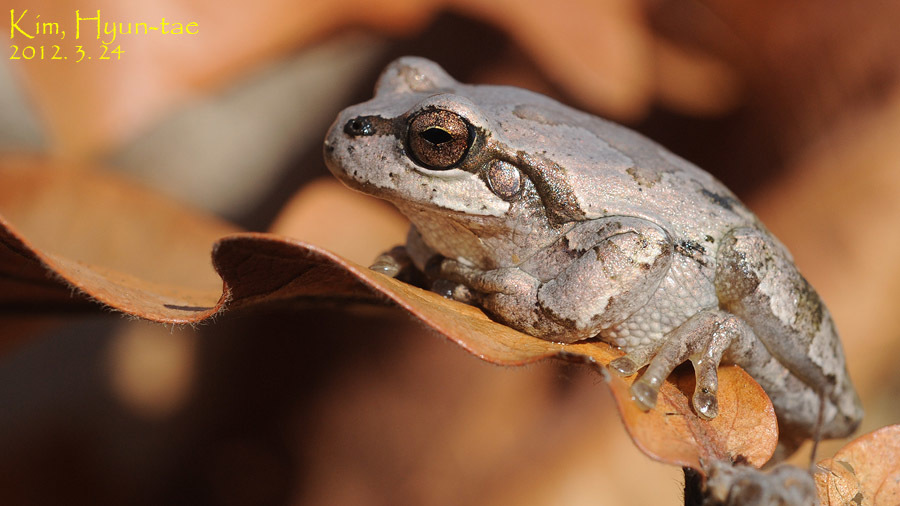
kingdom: Animalia
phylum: Chordata
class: Amphibia
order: Anura
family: Hylidae
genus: Dryophytes
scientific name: Dryophytes japonicus
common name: Japanese treefrog
